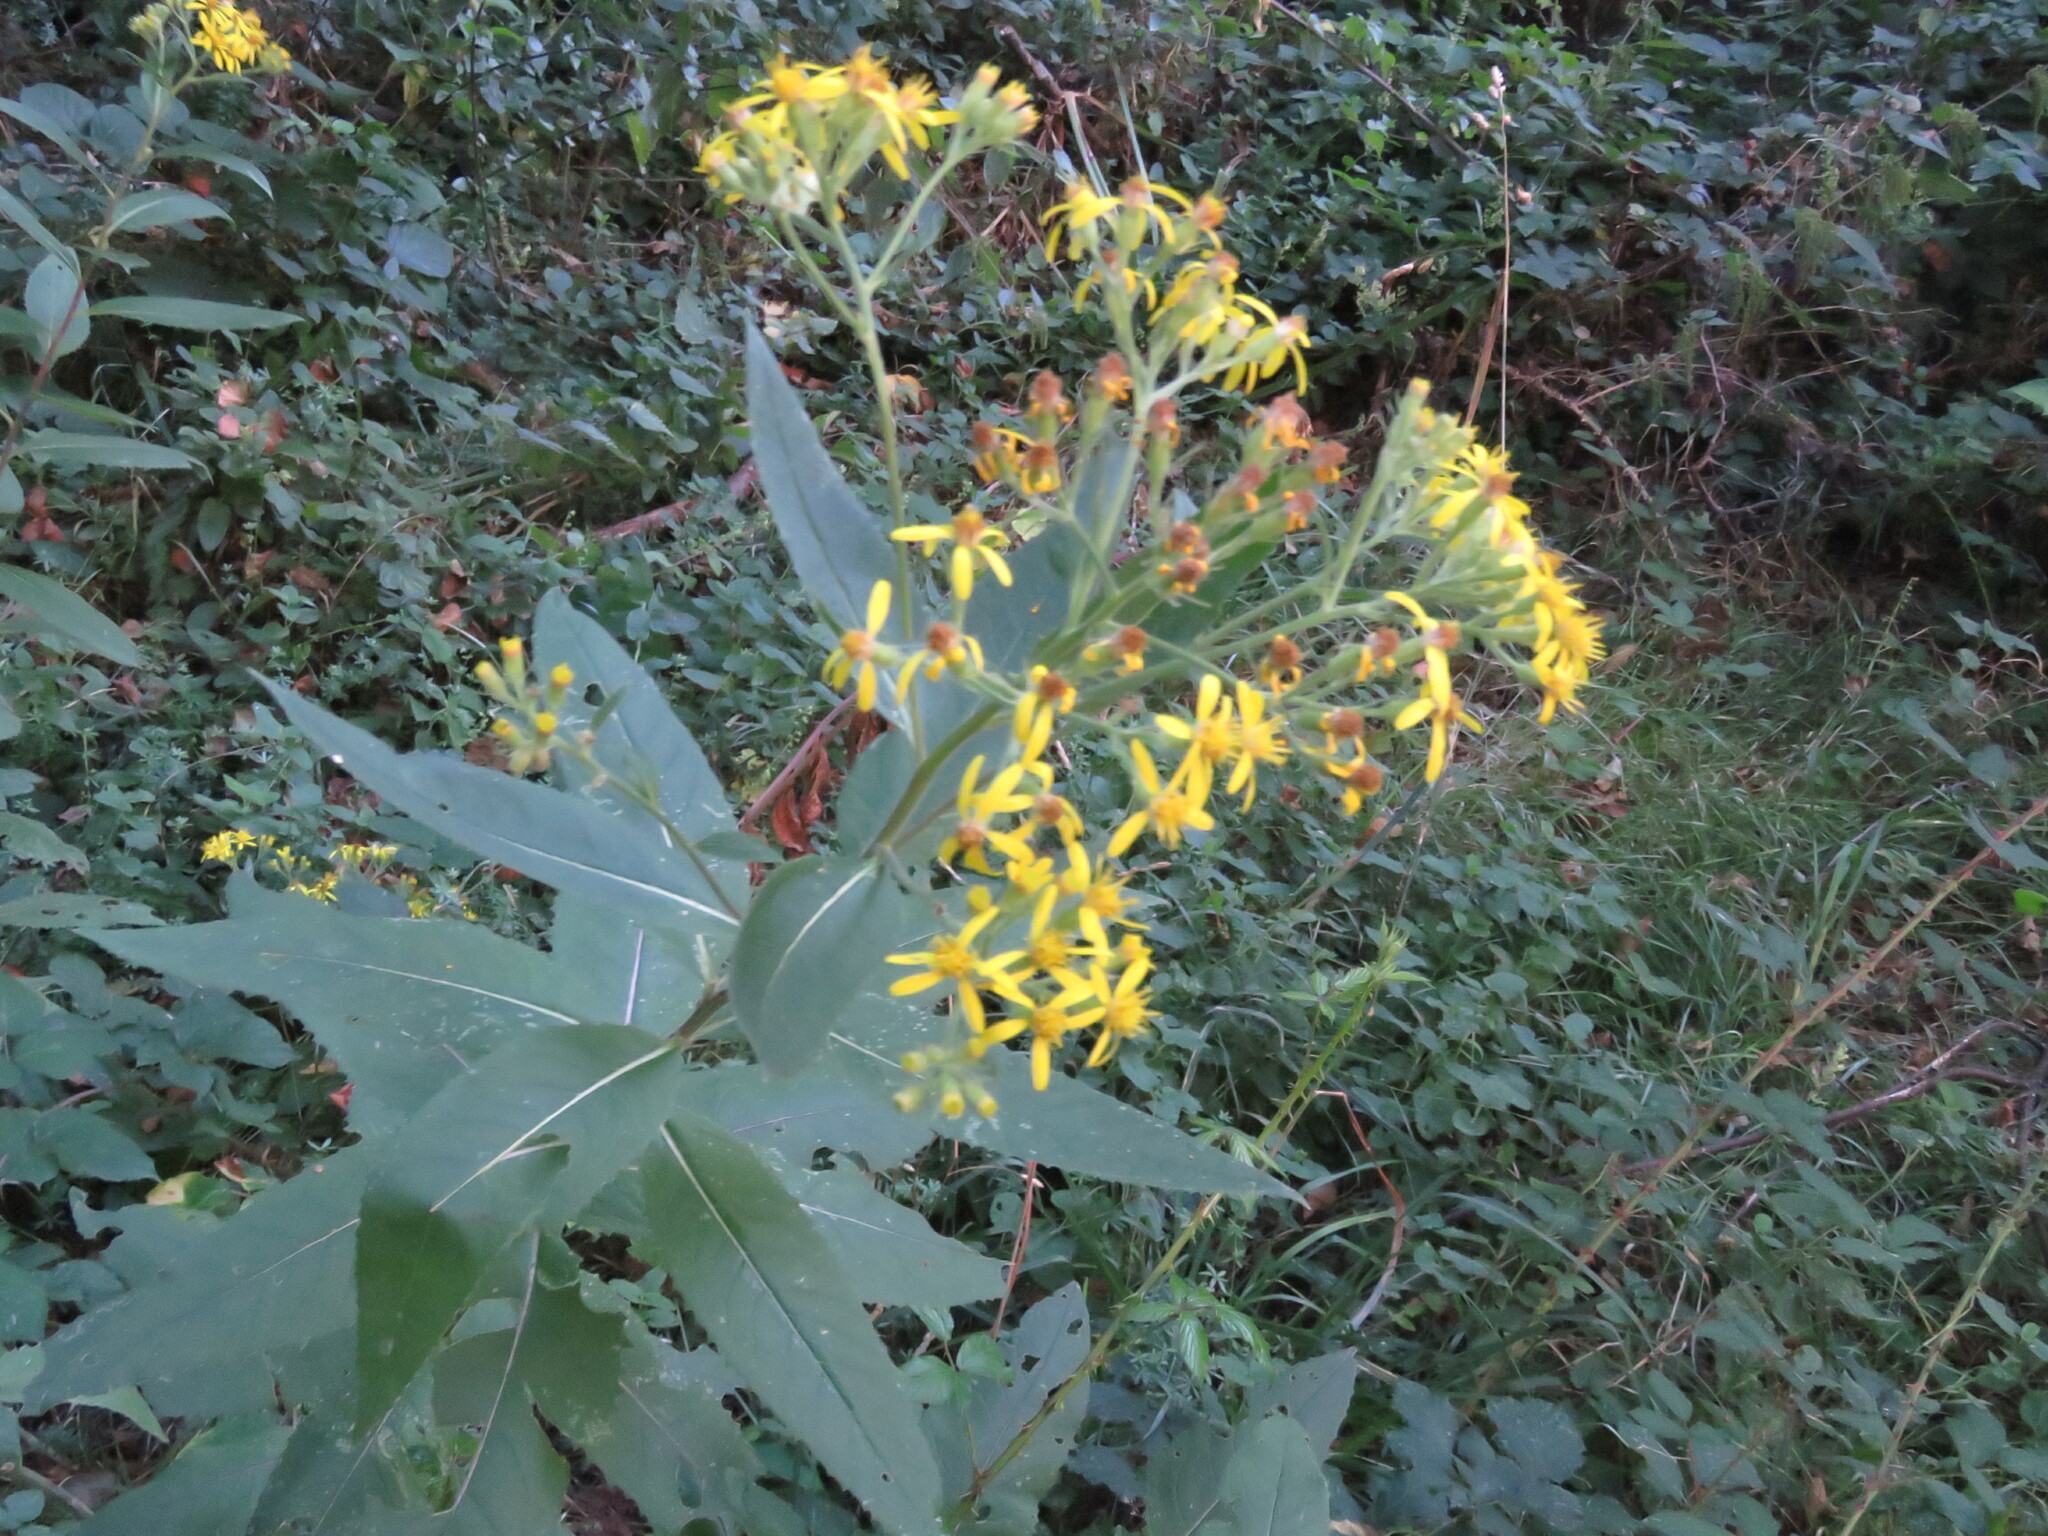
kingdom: Plantae
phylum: Tracheophyta
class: Magnoliopsida
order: Asterales
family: Asteraceae
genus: Senecio
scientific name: Senecio bayonnensis
